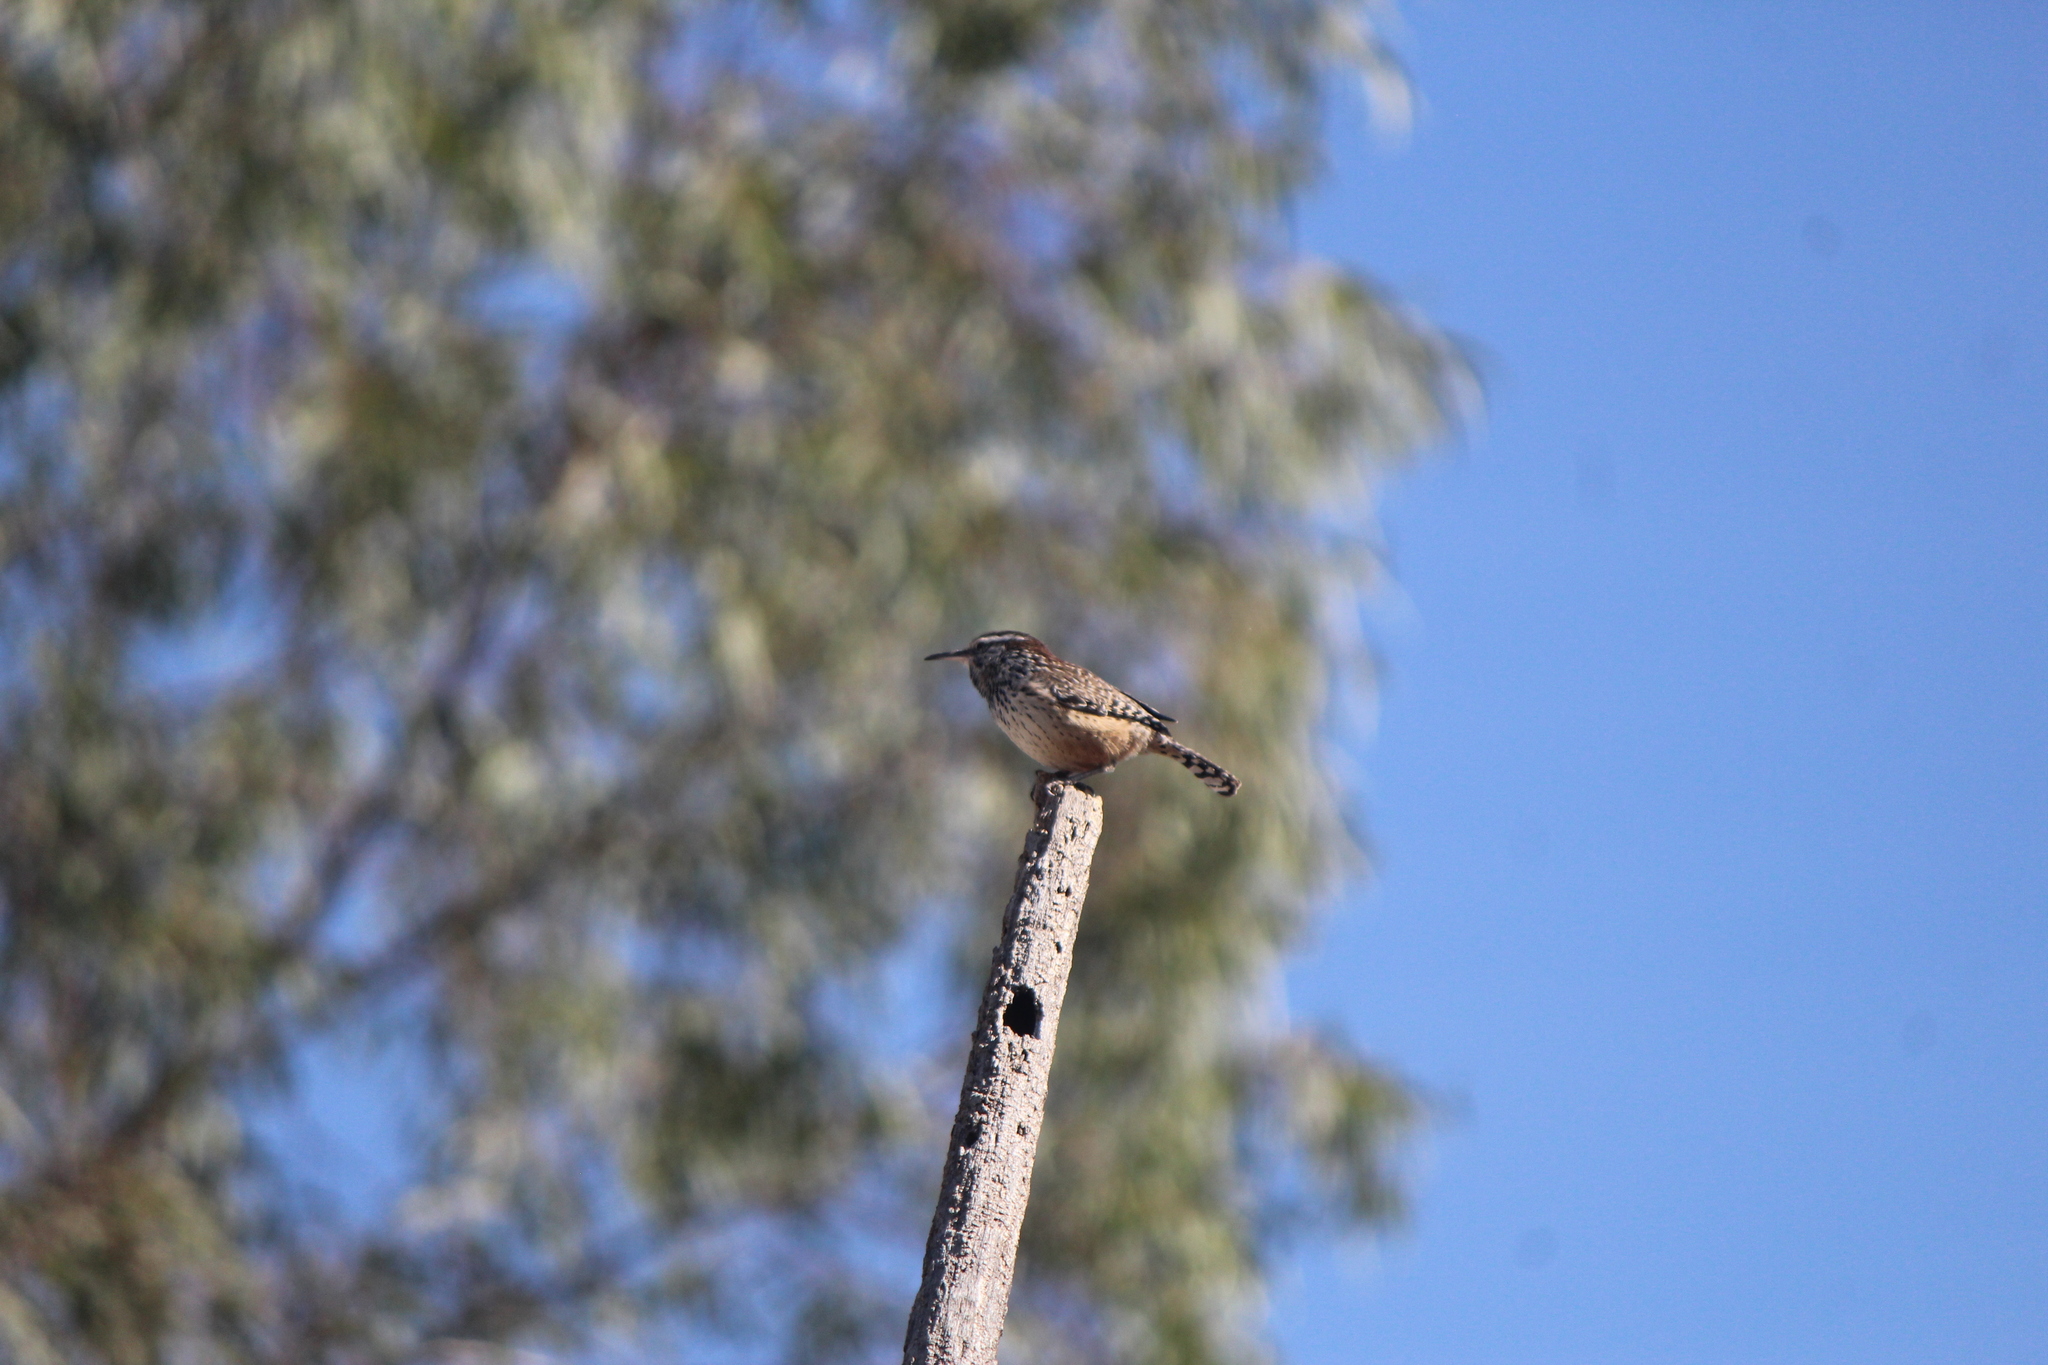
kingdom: Animalia
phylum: Chordata
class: Aves
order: Passeriformes
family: Troglodytidae
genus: Campylorhynchus
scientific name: Campylorhynchus brunneicapillus
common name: Cactus wren
